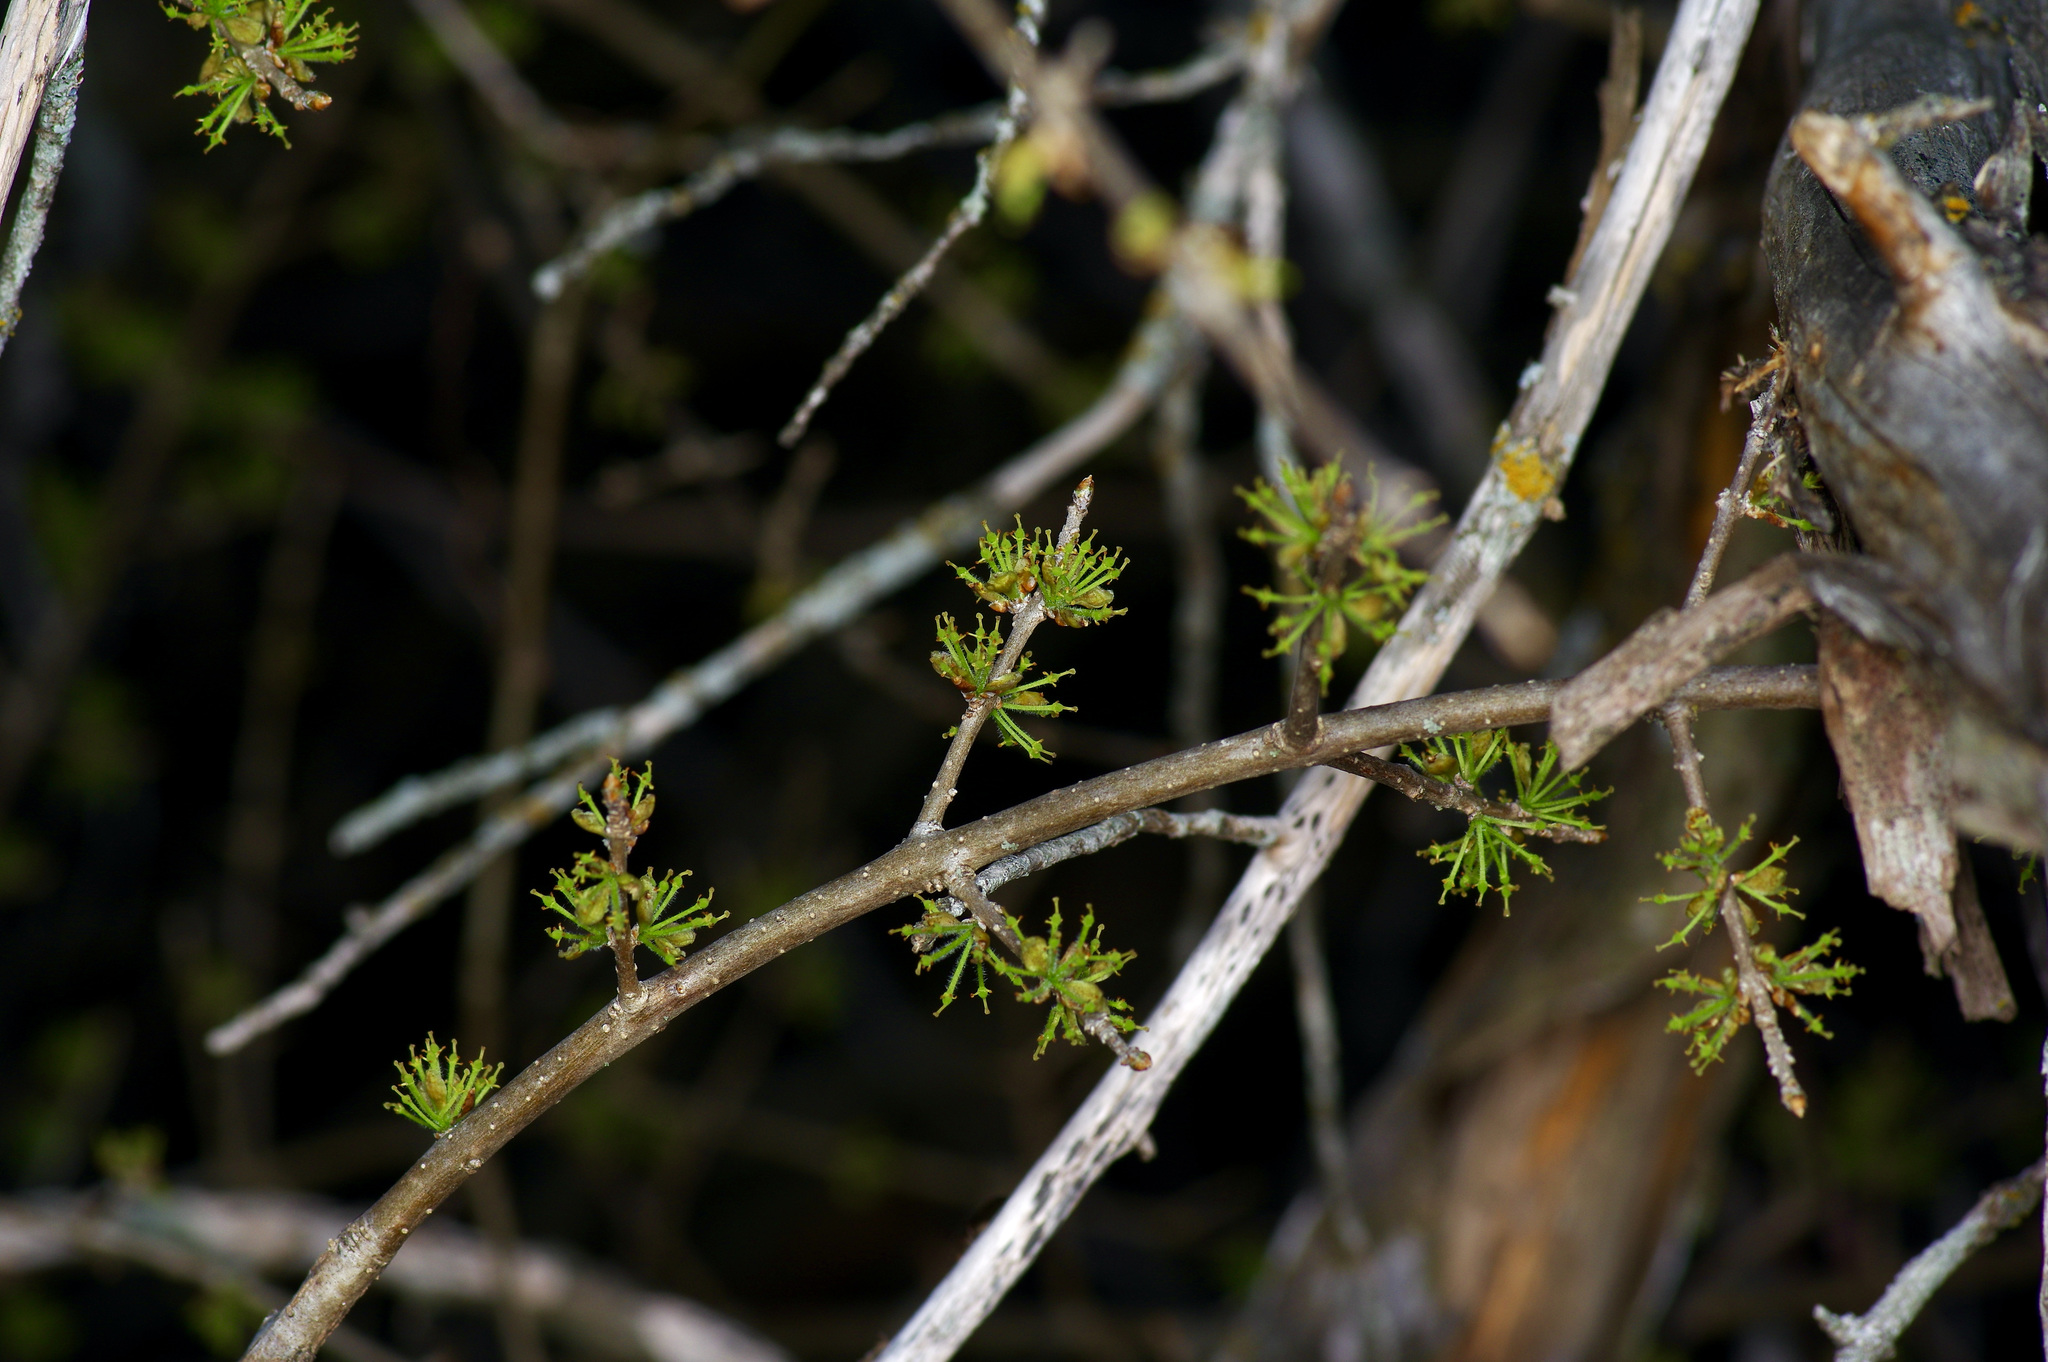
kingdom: Plantae
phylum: Tracheophyta
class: Magnoliopsida
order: Lamiales
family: Oleaceae
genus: Forestiera
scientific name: Forestiera pubescens
